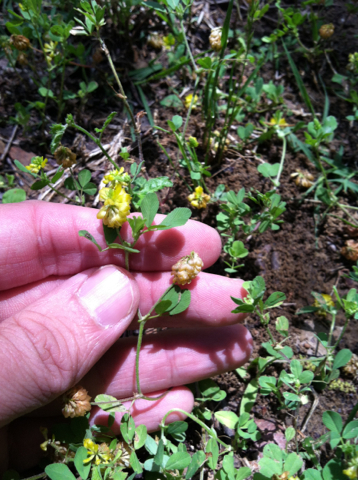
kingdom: Plantae
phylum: Tracheophyta
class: Magnoliopsida
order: Fabales
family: Fabaceae
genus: Trifolium
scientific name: Trifolium campestre
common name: Field clover
